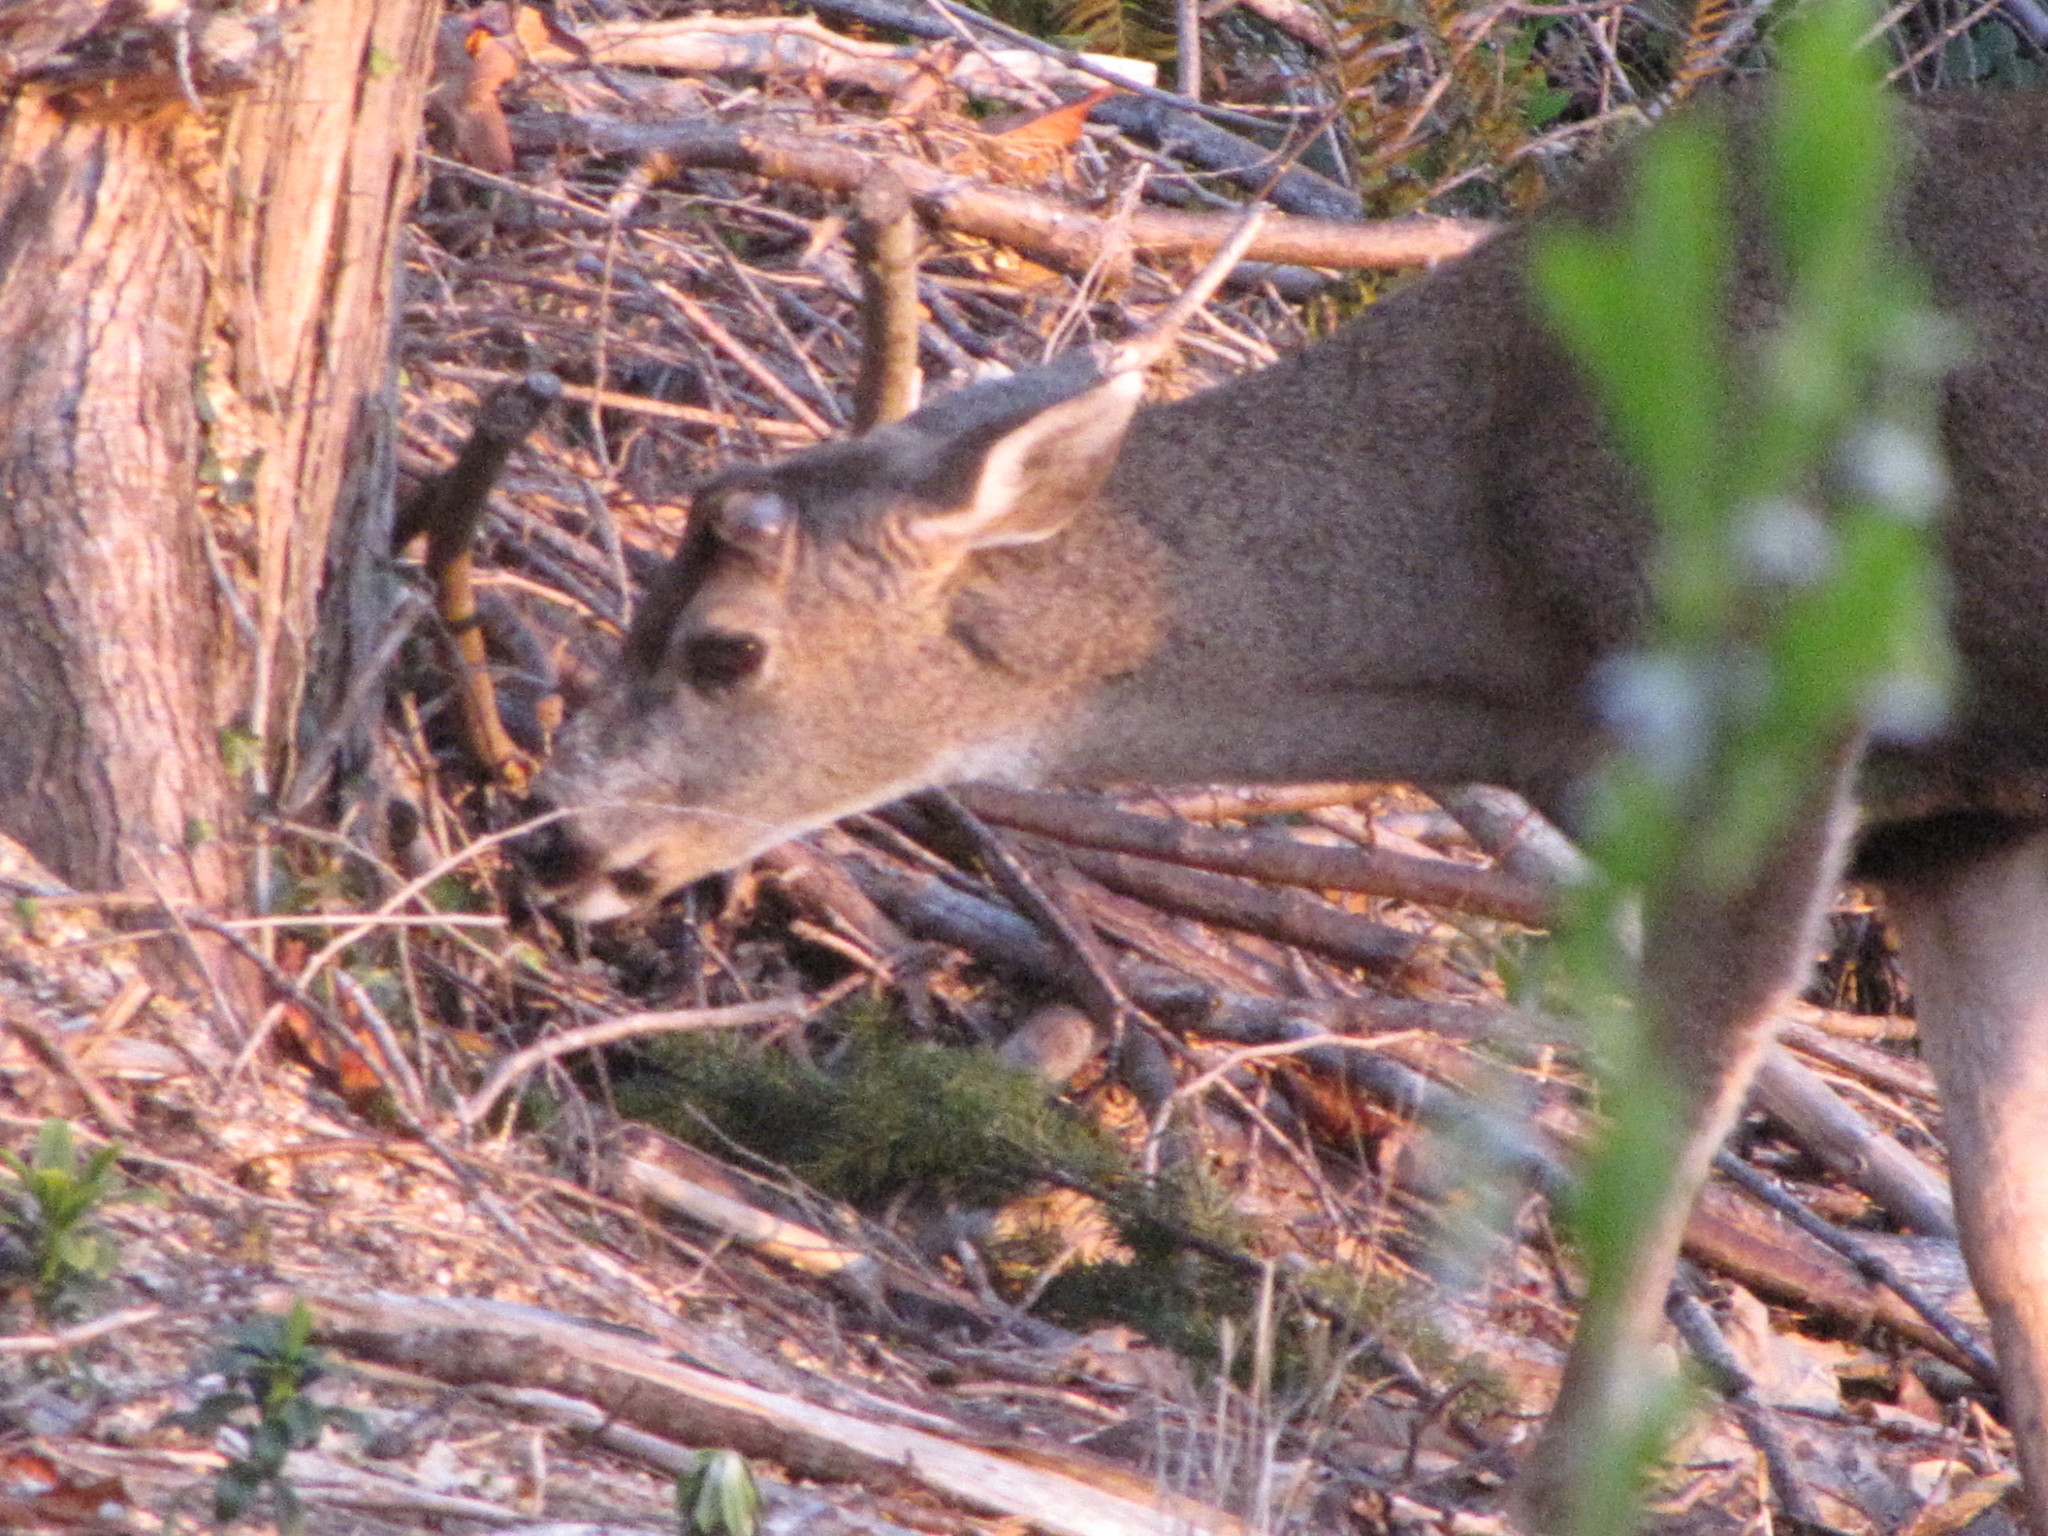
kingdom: Animalia
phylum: Chordata
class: Mammalia
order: Artiodactyla
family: Cervidae
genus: Odocoileus
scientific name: Odocoileus hemionus
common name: Mule deer
